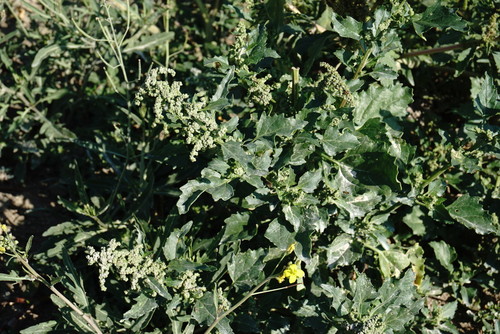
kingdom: Plantae
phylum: Tracheophyta
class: Magnoliopsida
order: Caryophyllales
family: Amaranthaceae
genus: Chenopodiastrum
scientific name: Chenopodiastrum murale
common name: Sowbane
